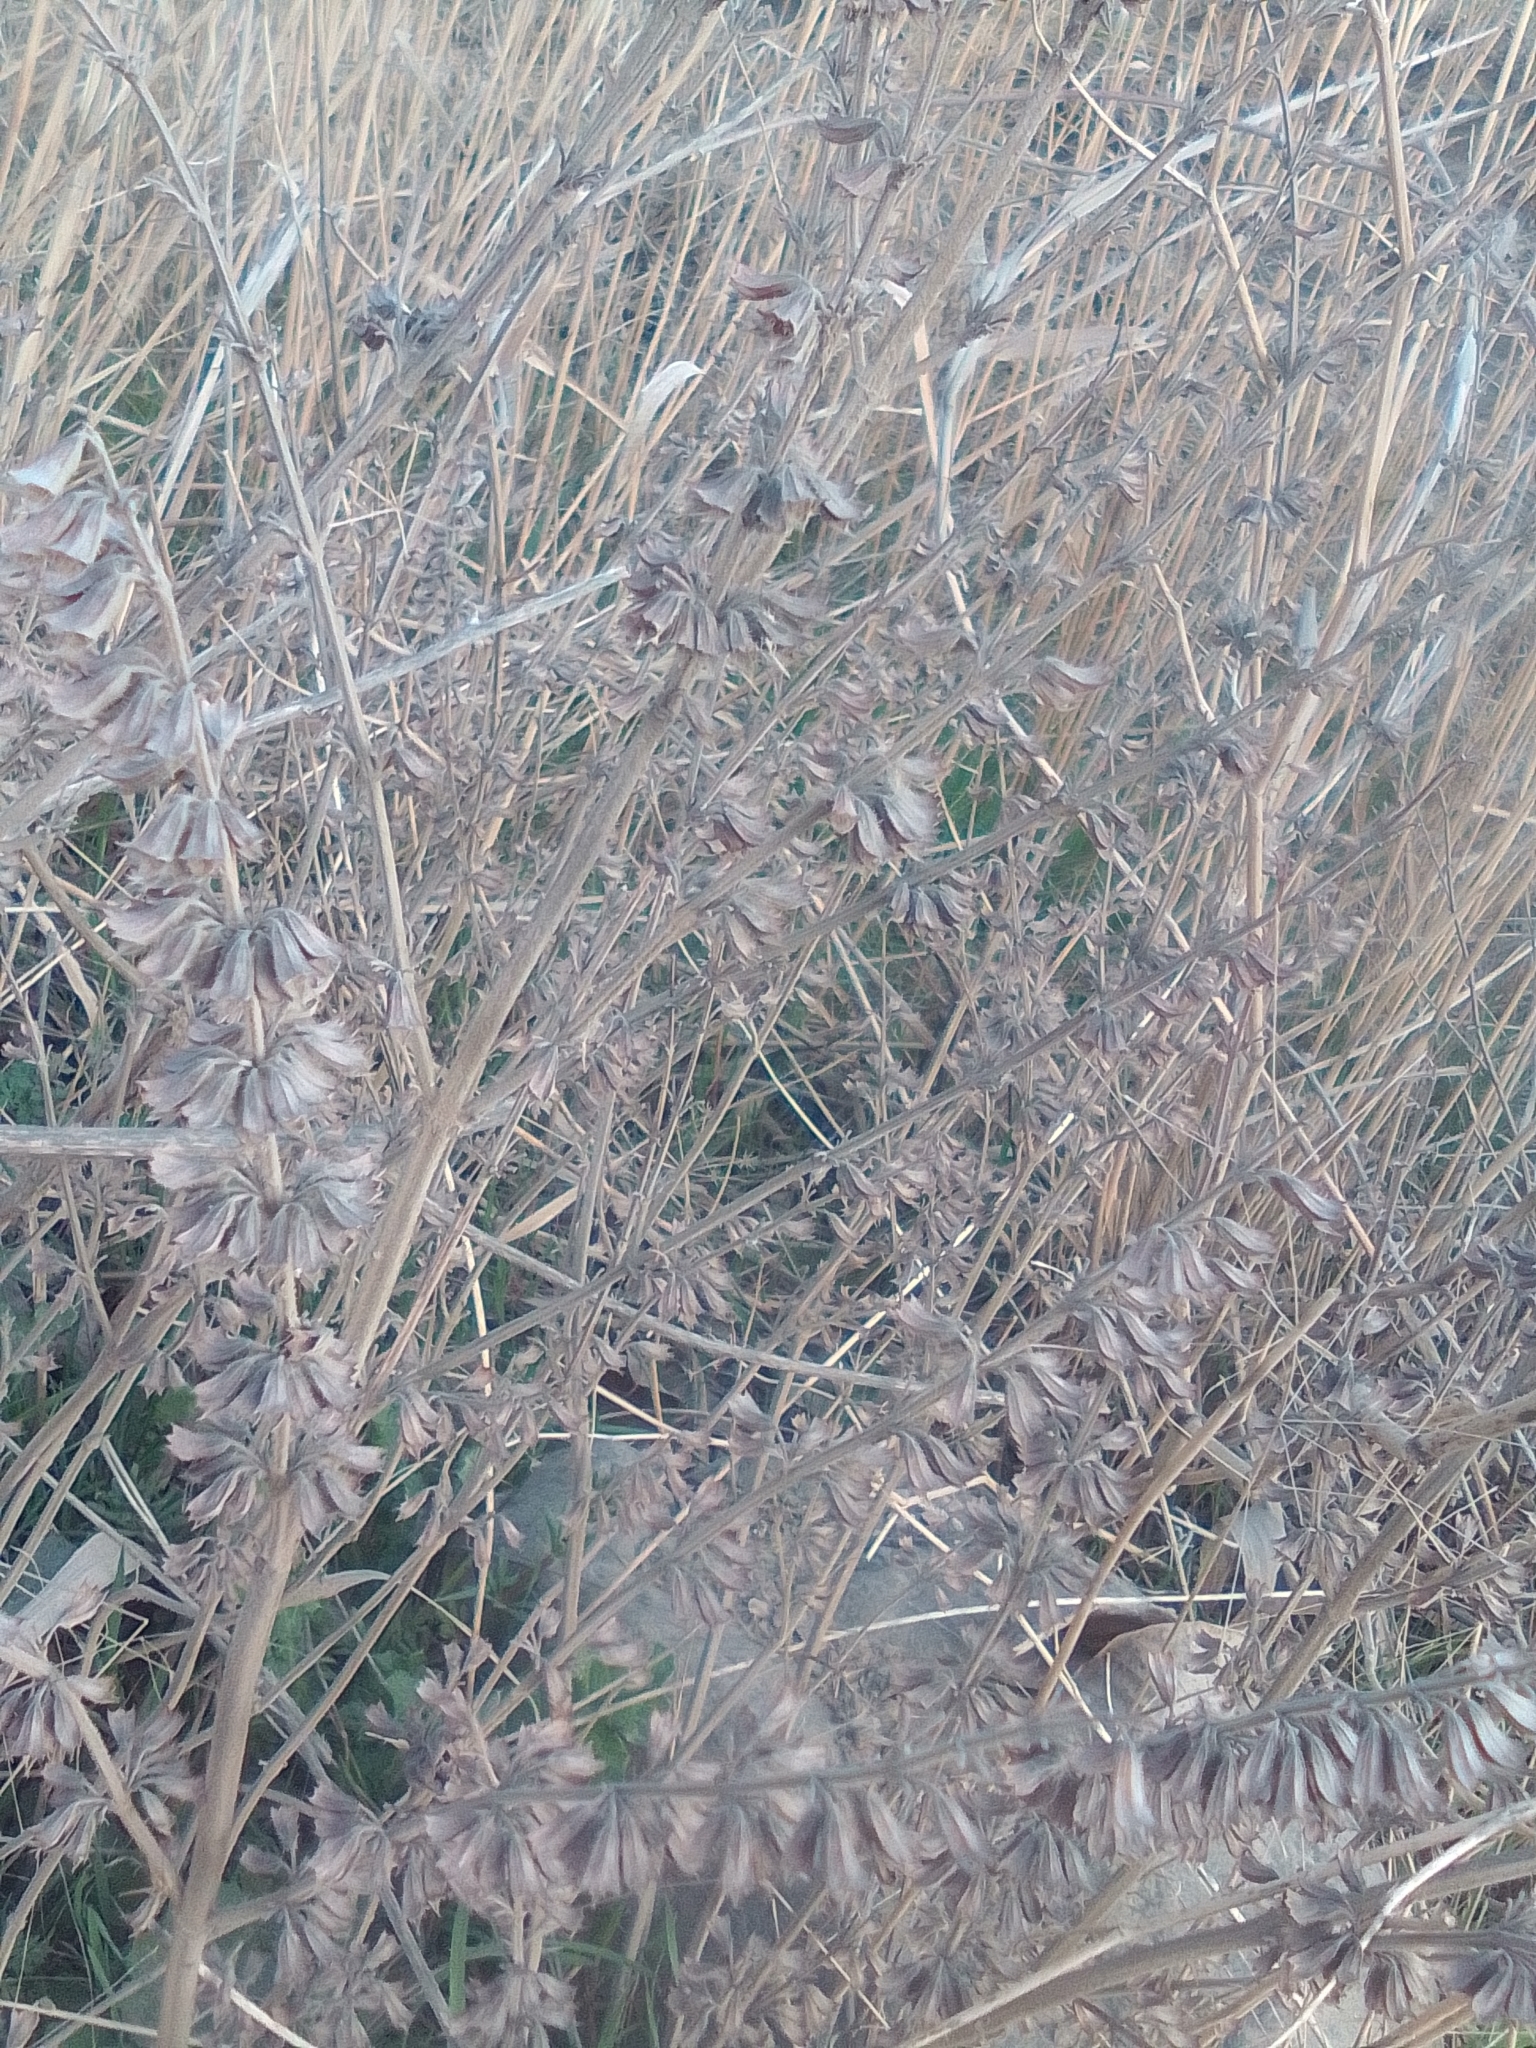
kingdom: Plantae
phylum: Tracheophyta
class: Magnoliopsida
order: Lamiales
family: Lamiaceae
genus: Salvia
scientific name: Salvia verticillata
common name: Whorled clary
